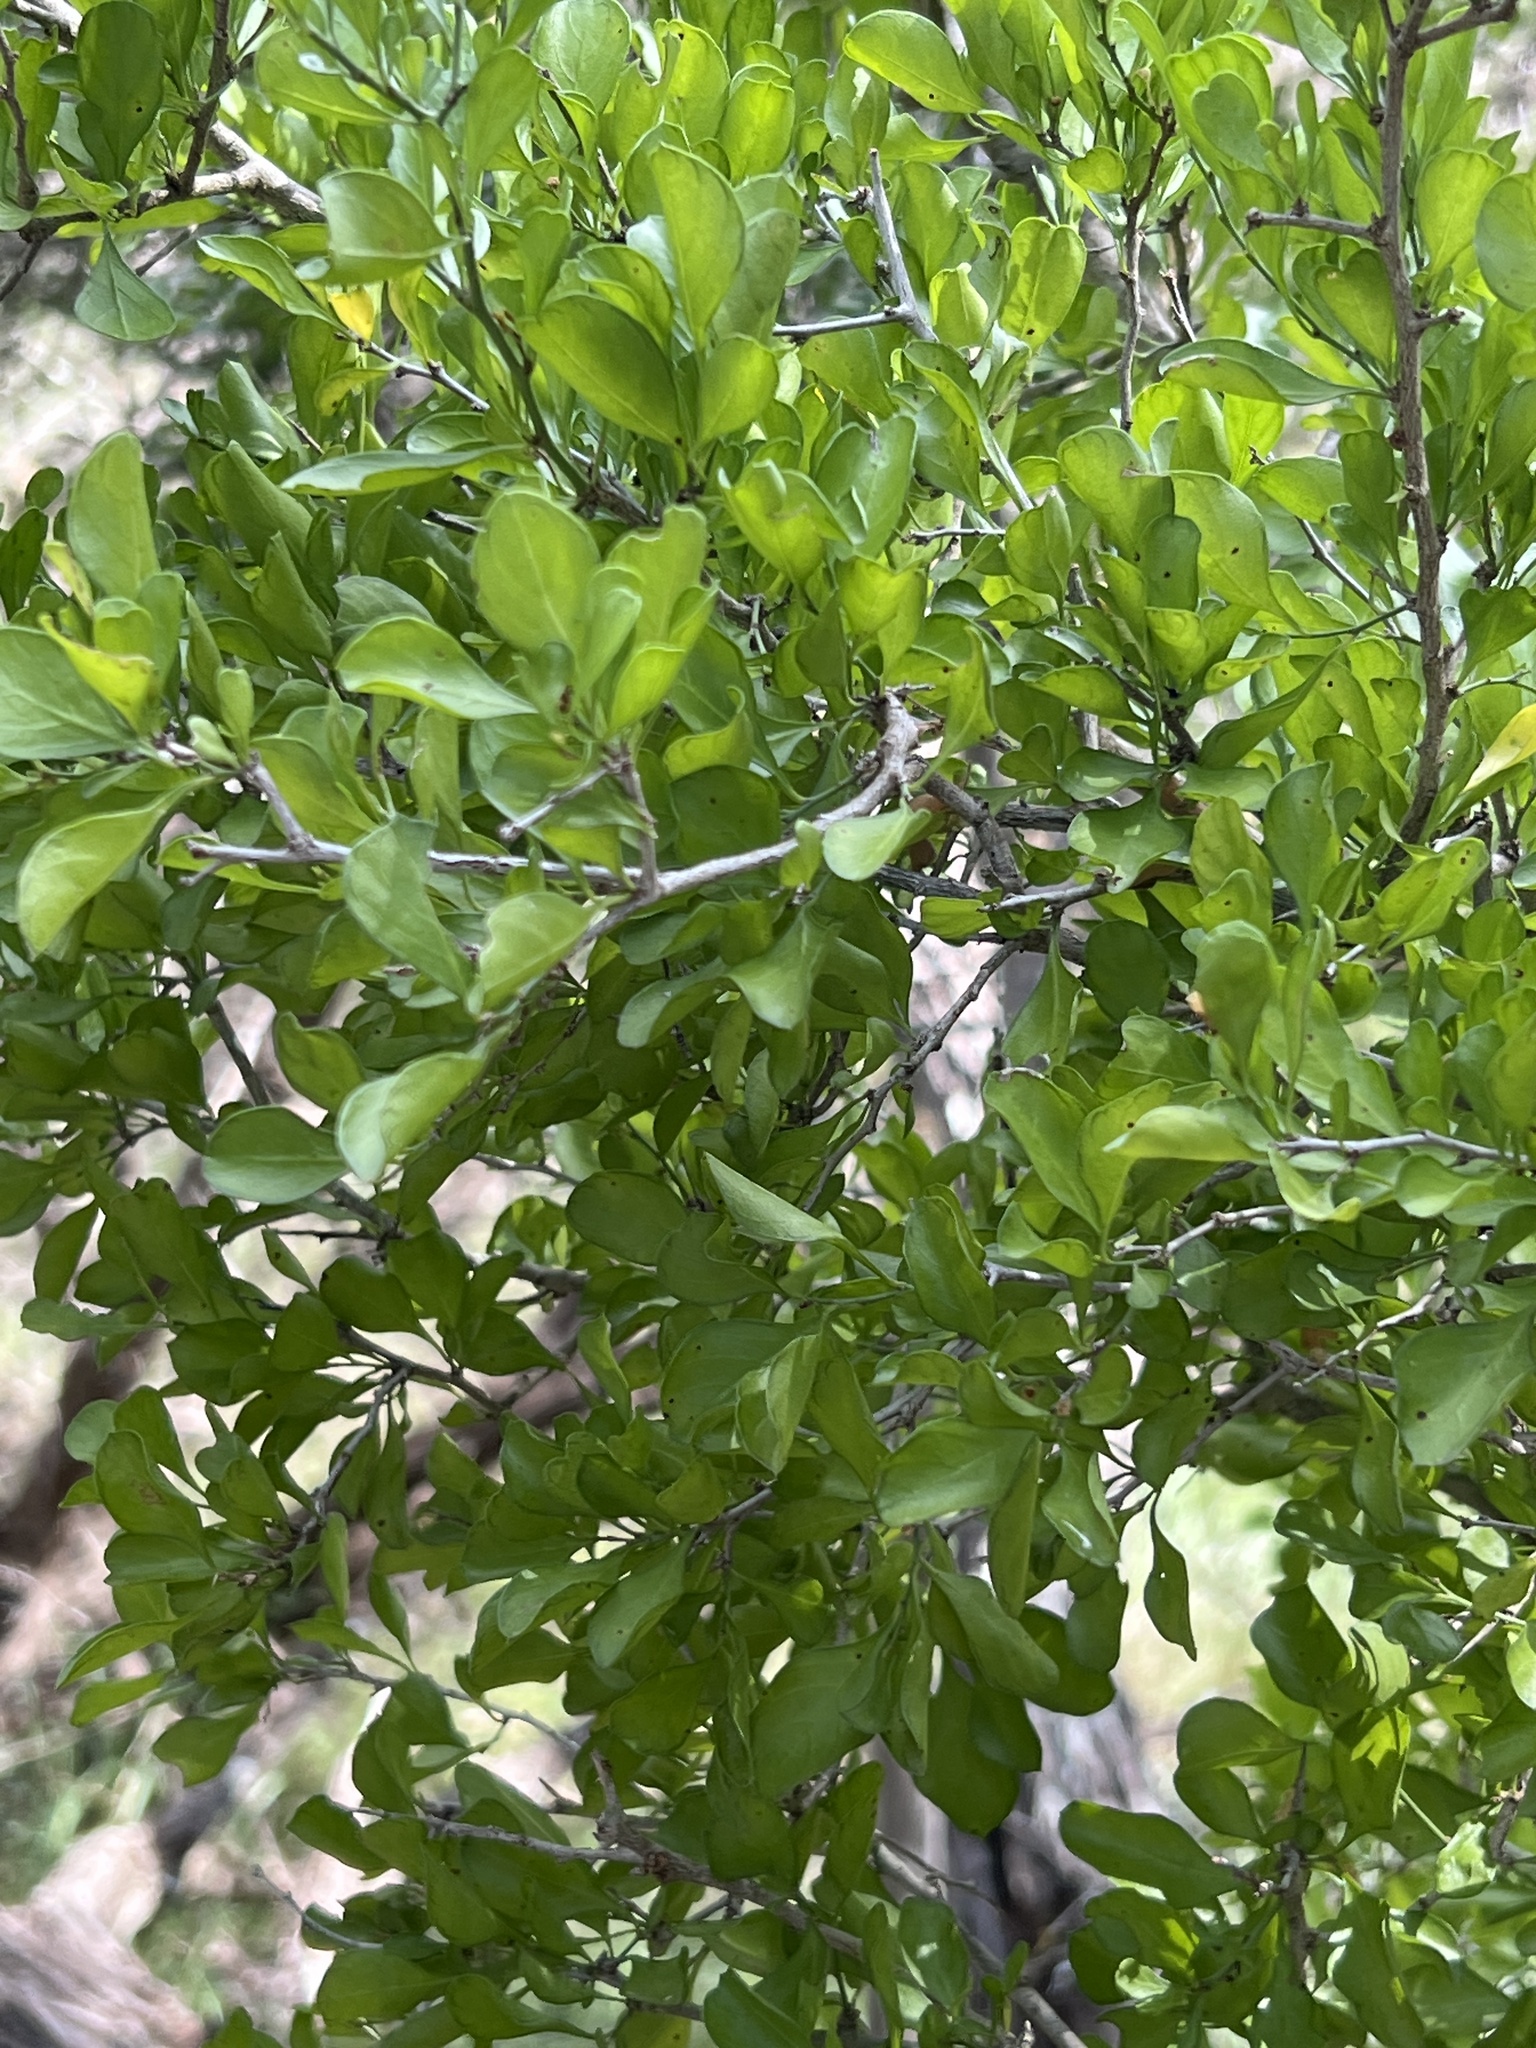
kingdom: Plantae
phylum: Tracheophyta
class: Magnoliopsida
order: Rosales
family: Rhamnaceae
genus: Condalia
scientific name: Condalia hookeri
